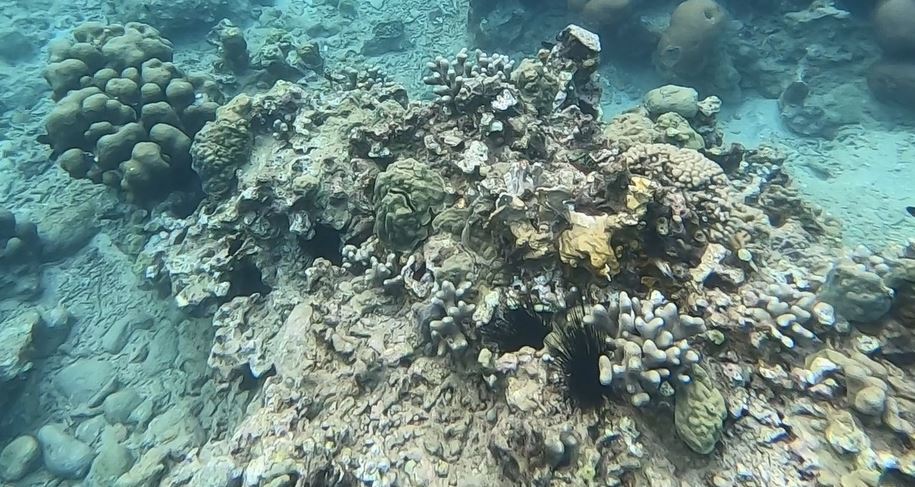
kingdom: Animalia
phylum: Echinodermata
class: Echinoidea
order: Diadematoida
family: Diadematidae
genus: Diadema
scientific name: Diadema antillarum
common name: Spiny urchin
